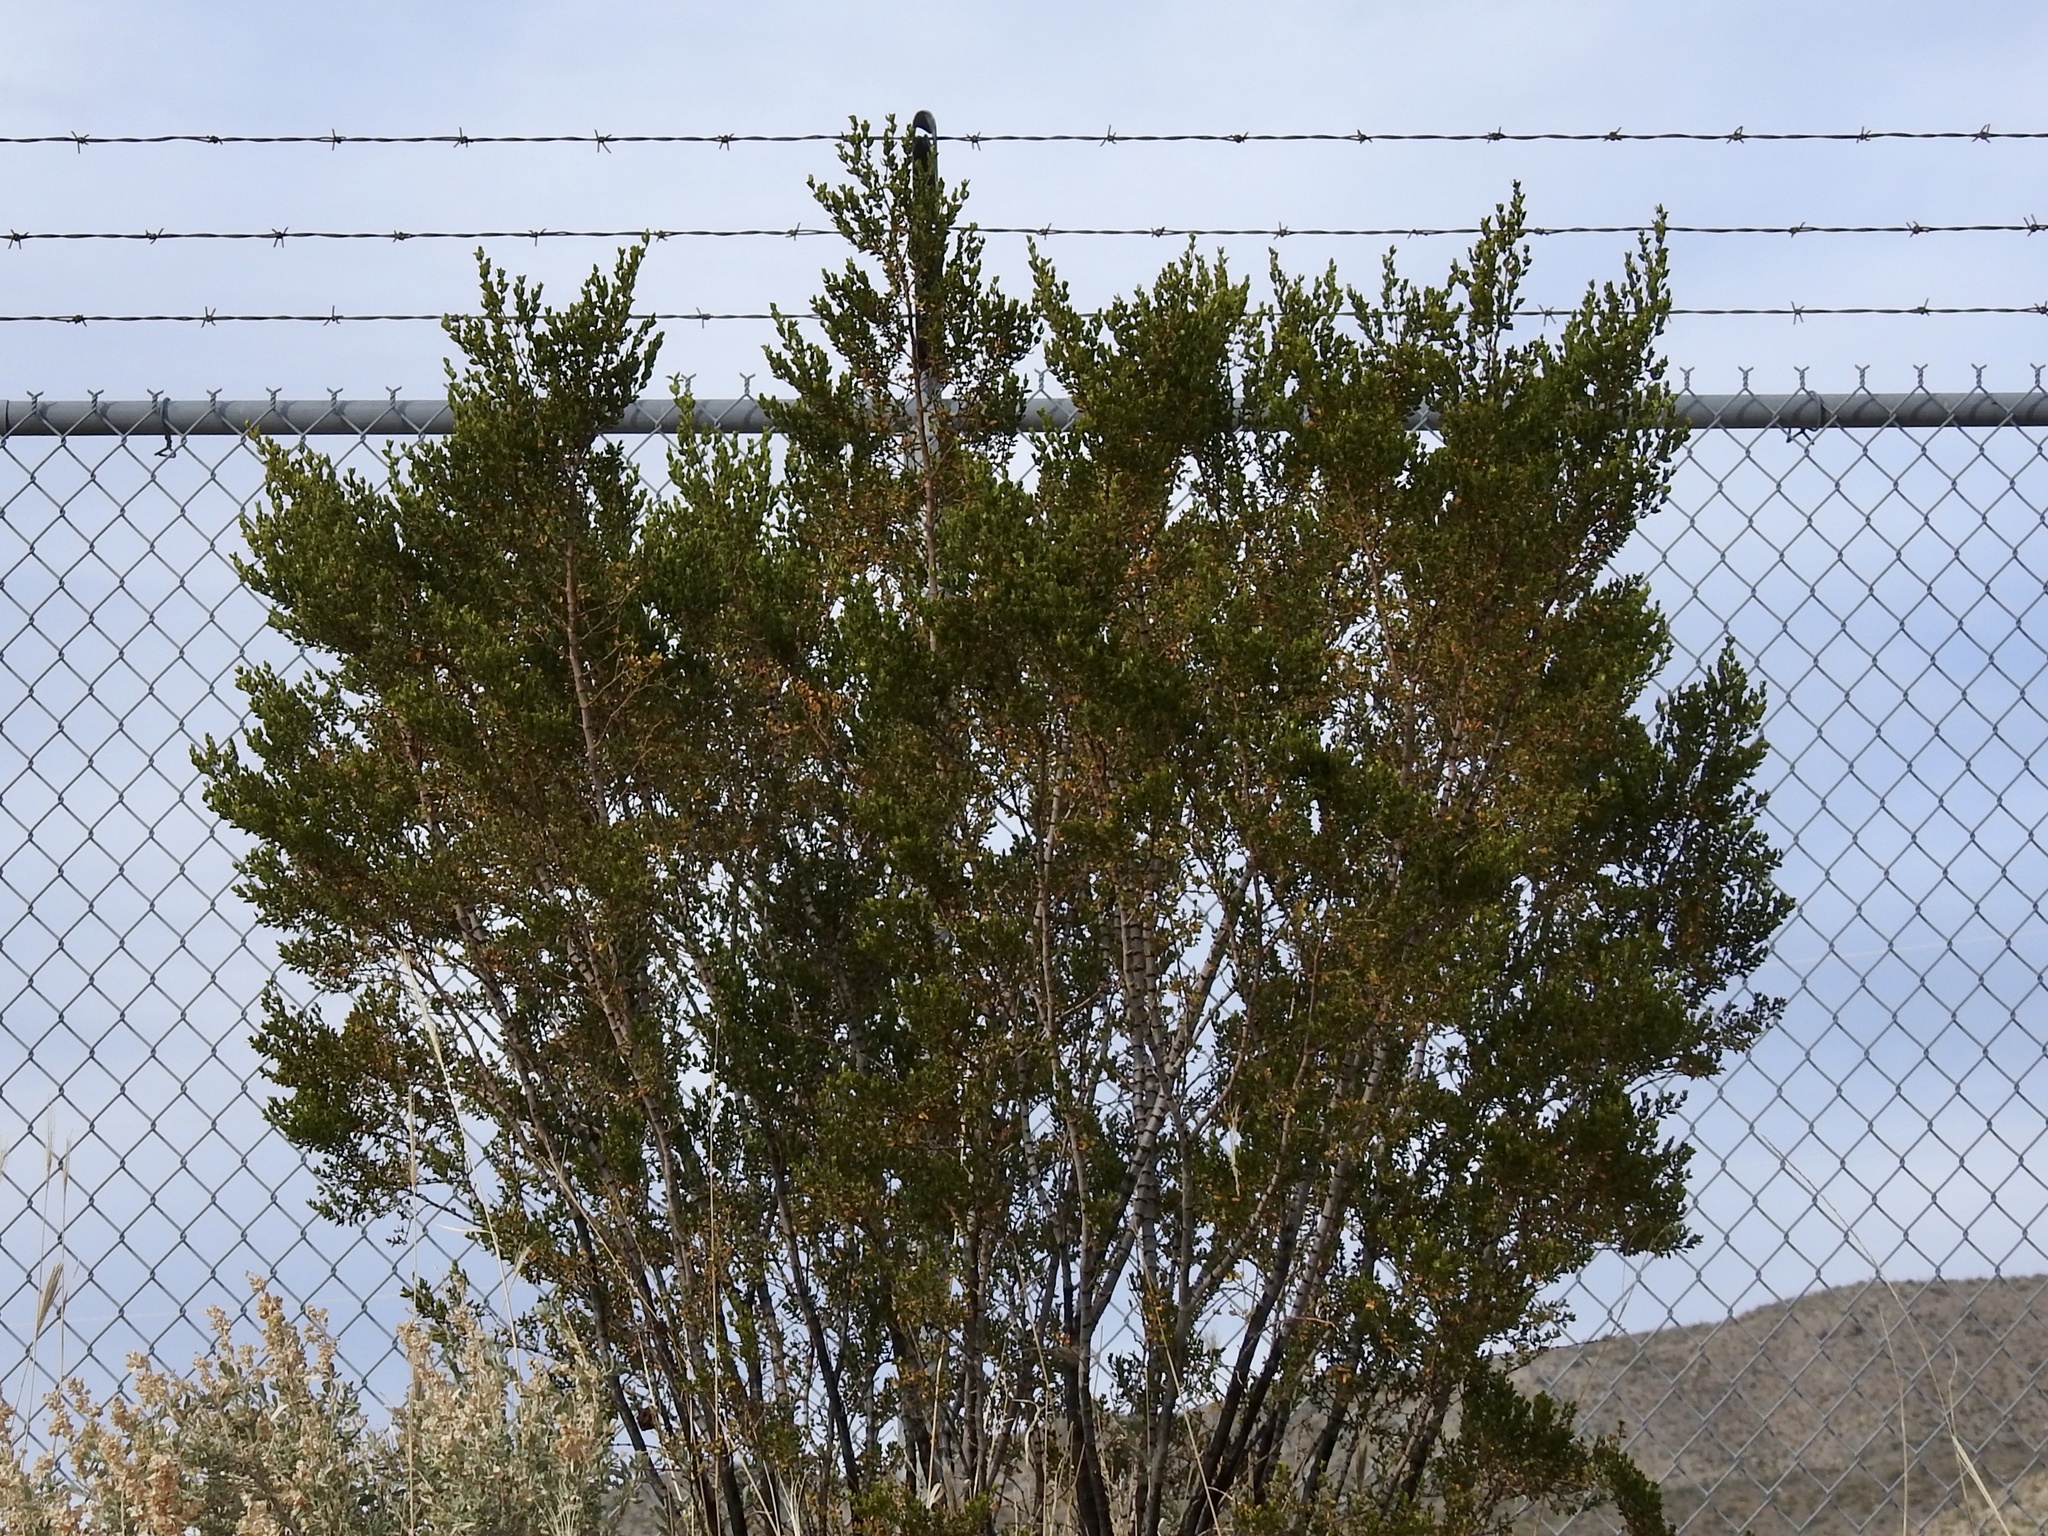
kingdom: Plantae
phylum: Tracheophyta
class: Magnoliopsida
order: Zygophyllales
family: Zygophyllaceae
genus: Larrea
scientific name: Larrea tridentata
